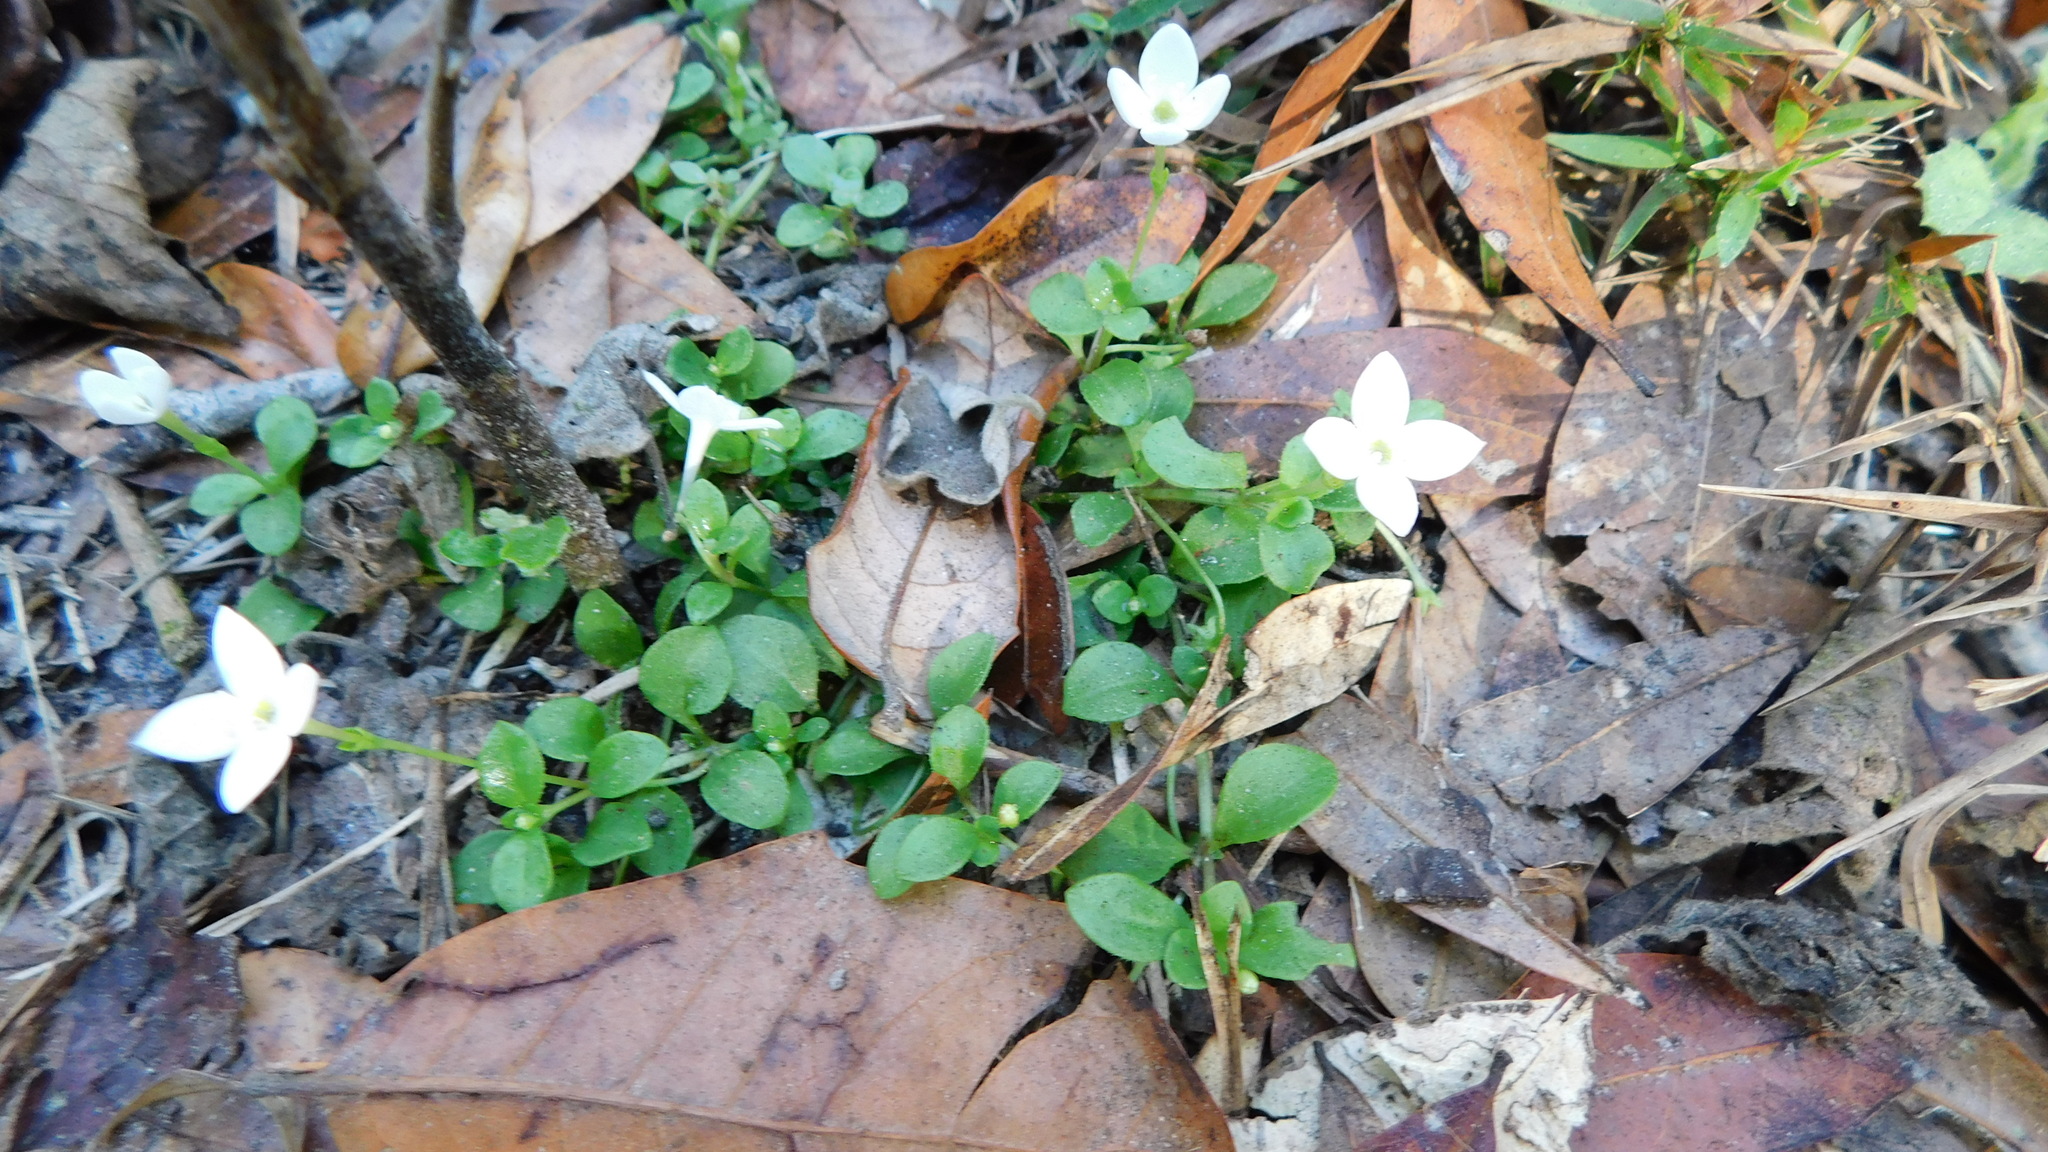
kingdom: Plantae
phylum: Tracheophyta
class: Magnoliopsida
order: Gentianales
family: Rubiaceae
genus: Houstonia
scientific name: Houstonia procumbens
